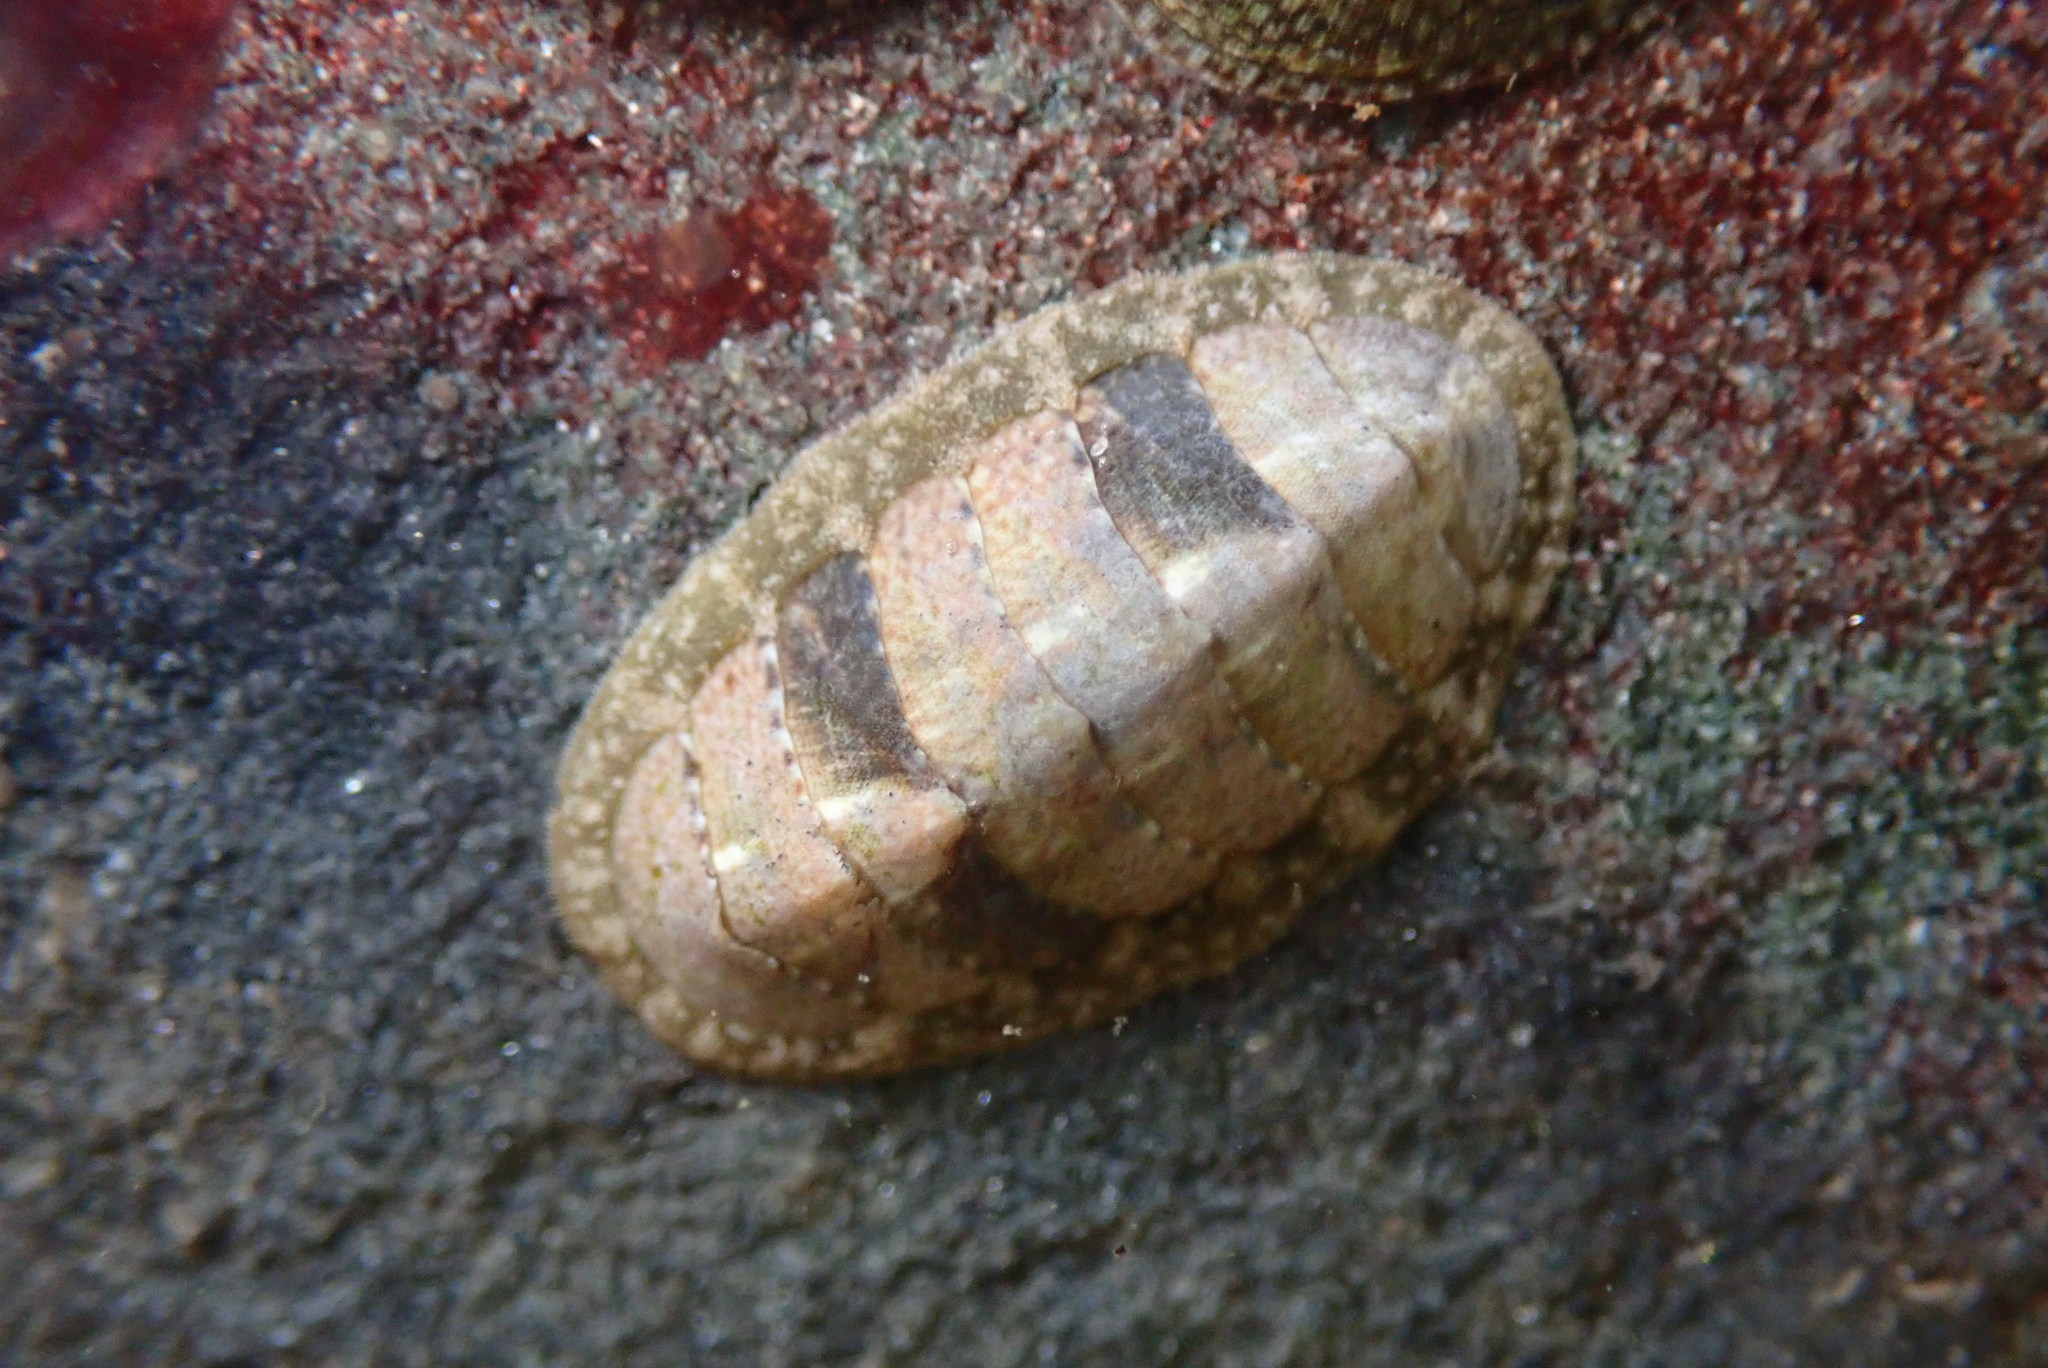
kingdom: Animalia
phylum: Mollusca
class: Polyplacophora
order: Chitonida
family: Tonicellidae
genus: Cyanoplax
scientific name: Cyanoplax keepiana
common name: Keep's chiton
